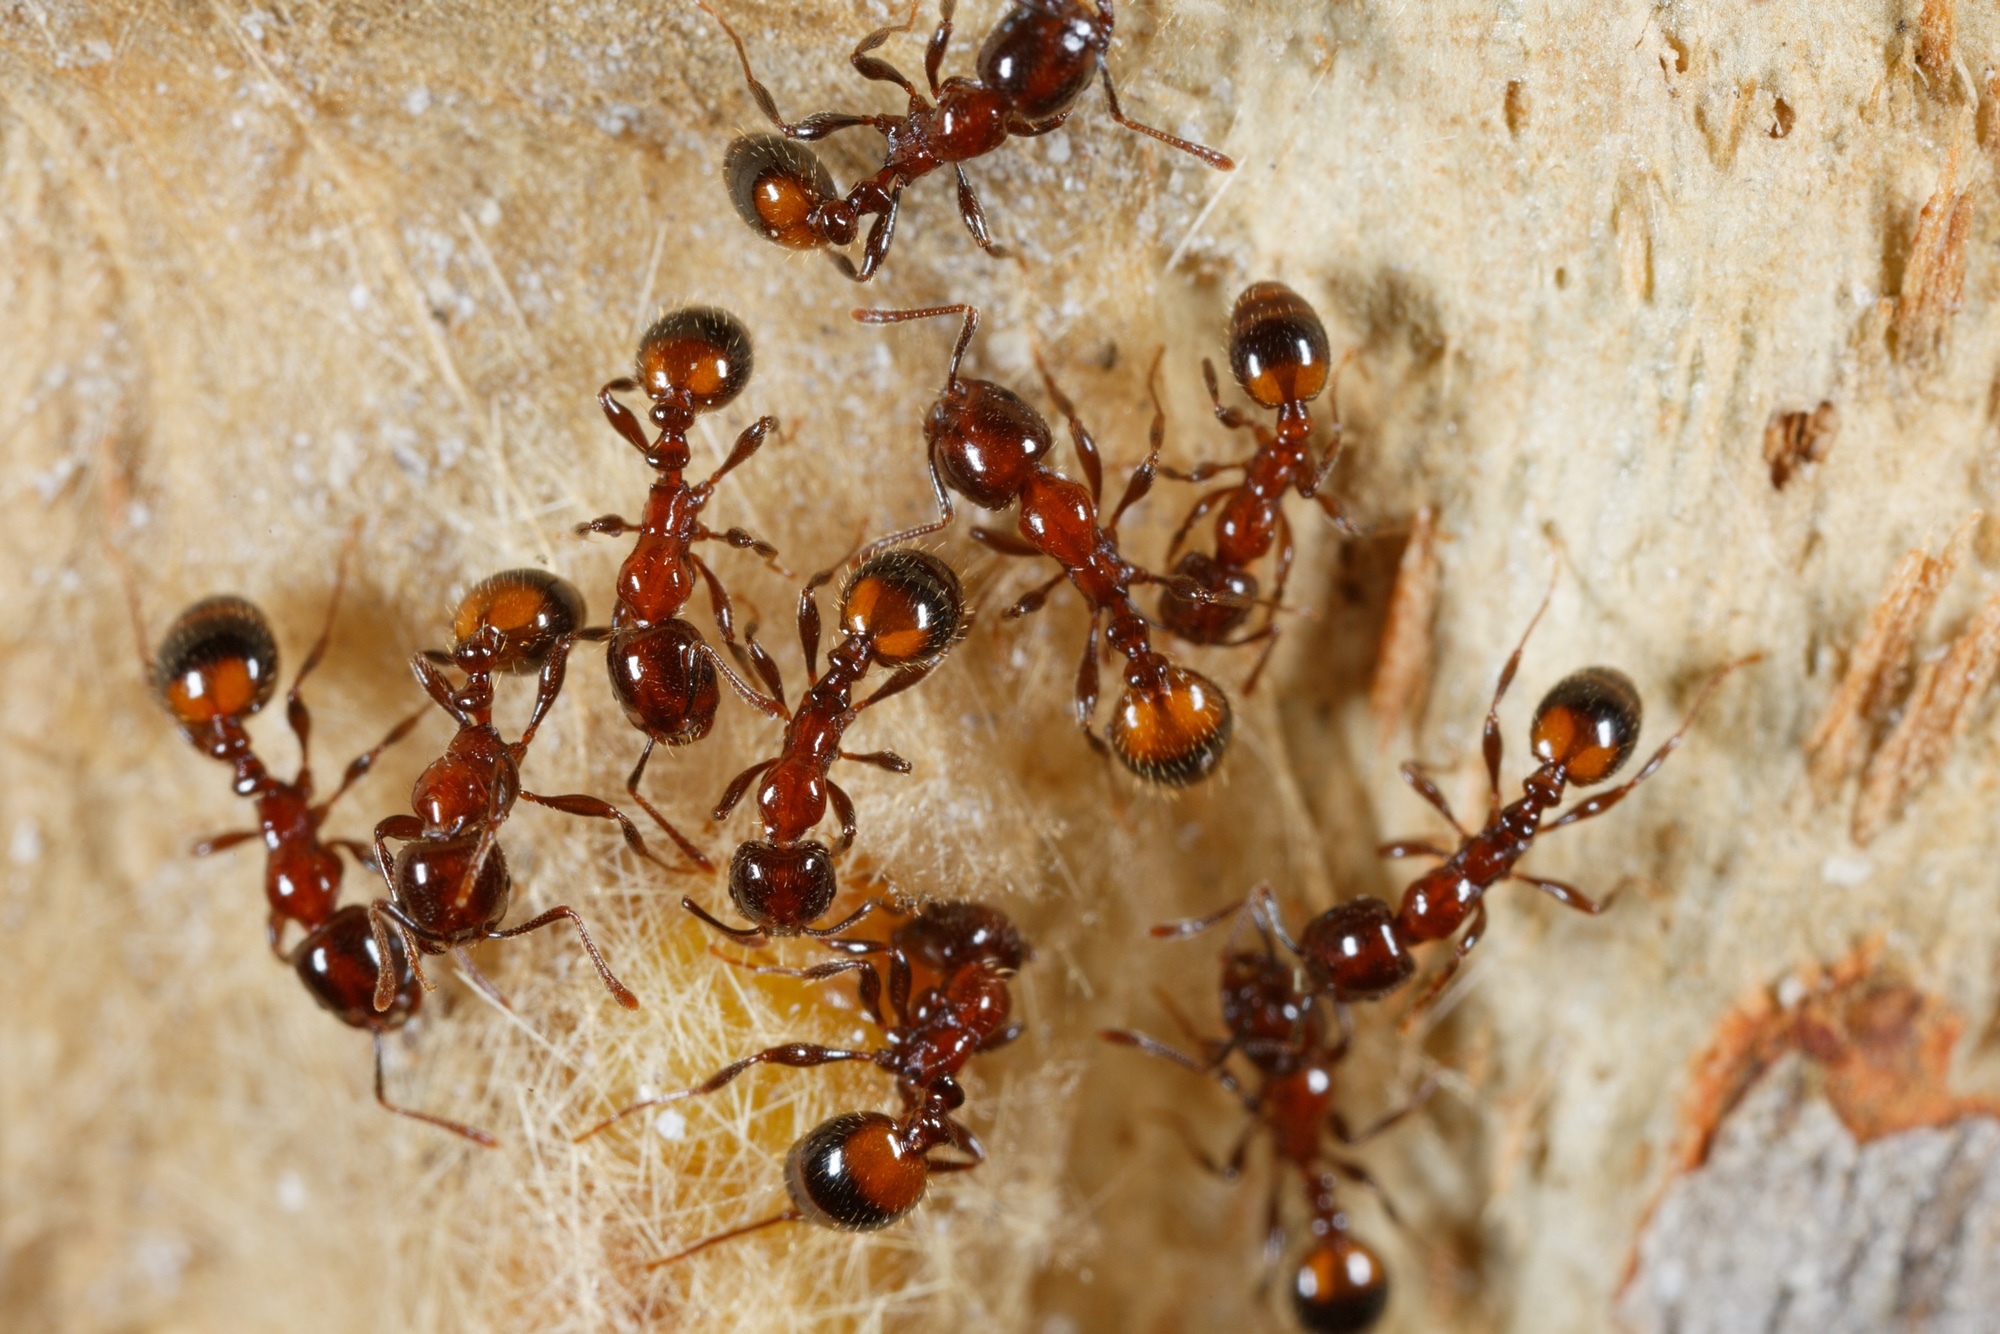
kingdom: Animalia
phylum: Arthropoda
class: Insecta
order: Hymenoptera
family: Formicidae
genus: Chelaner
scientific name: Chelaner
